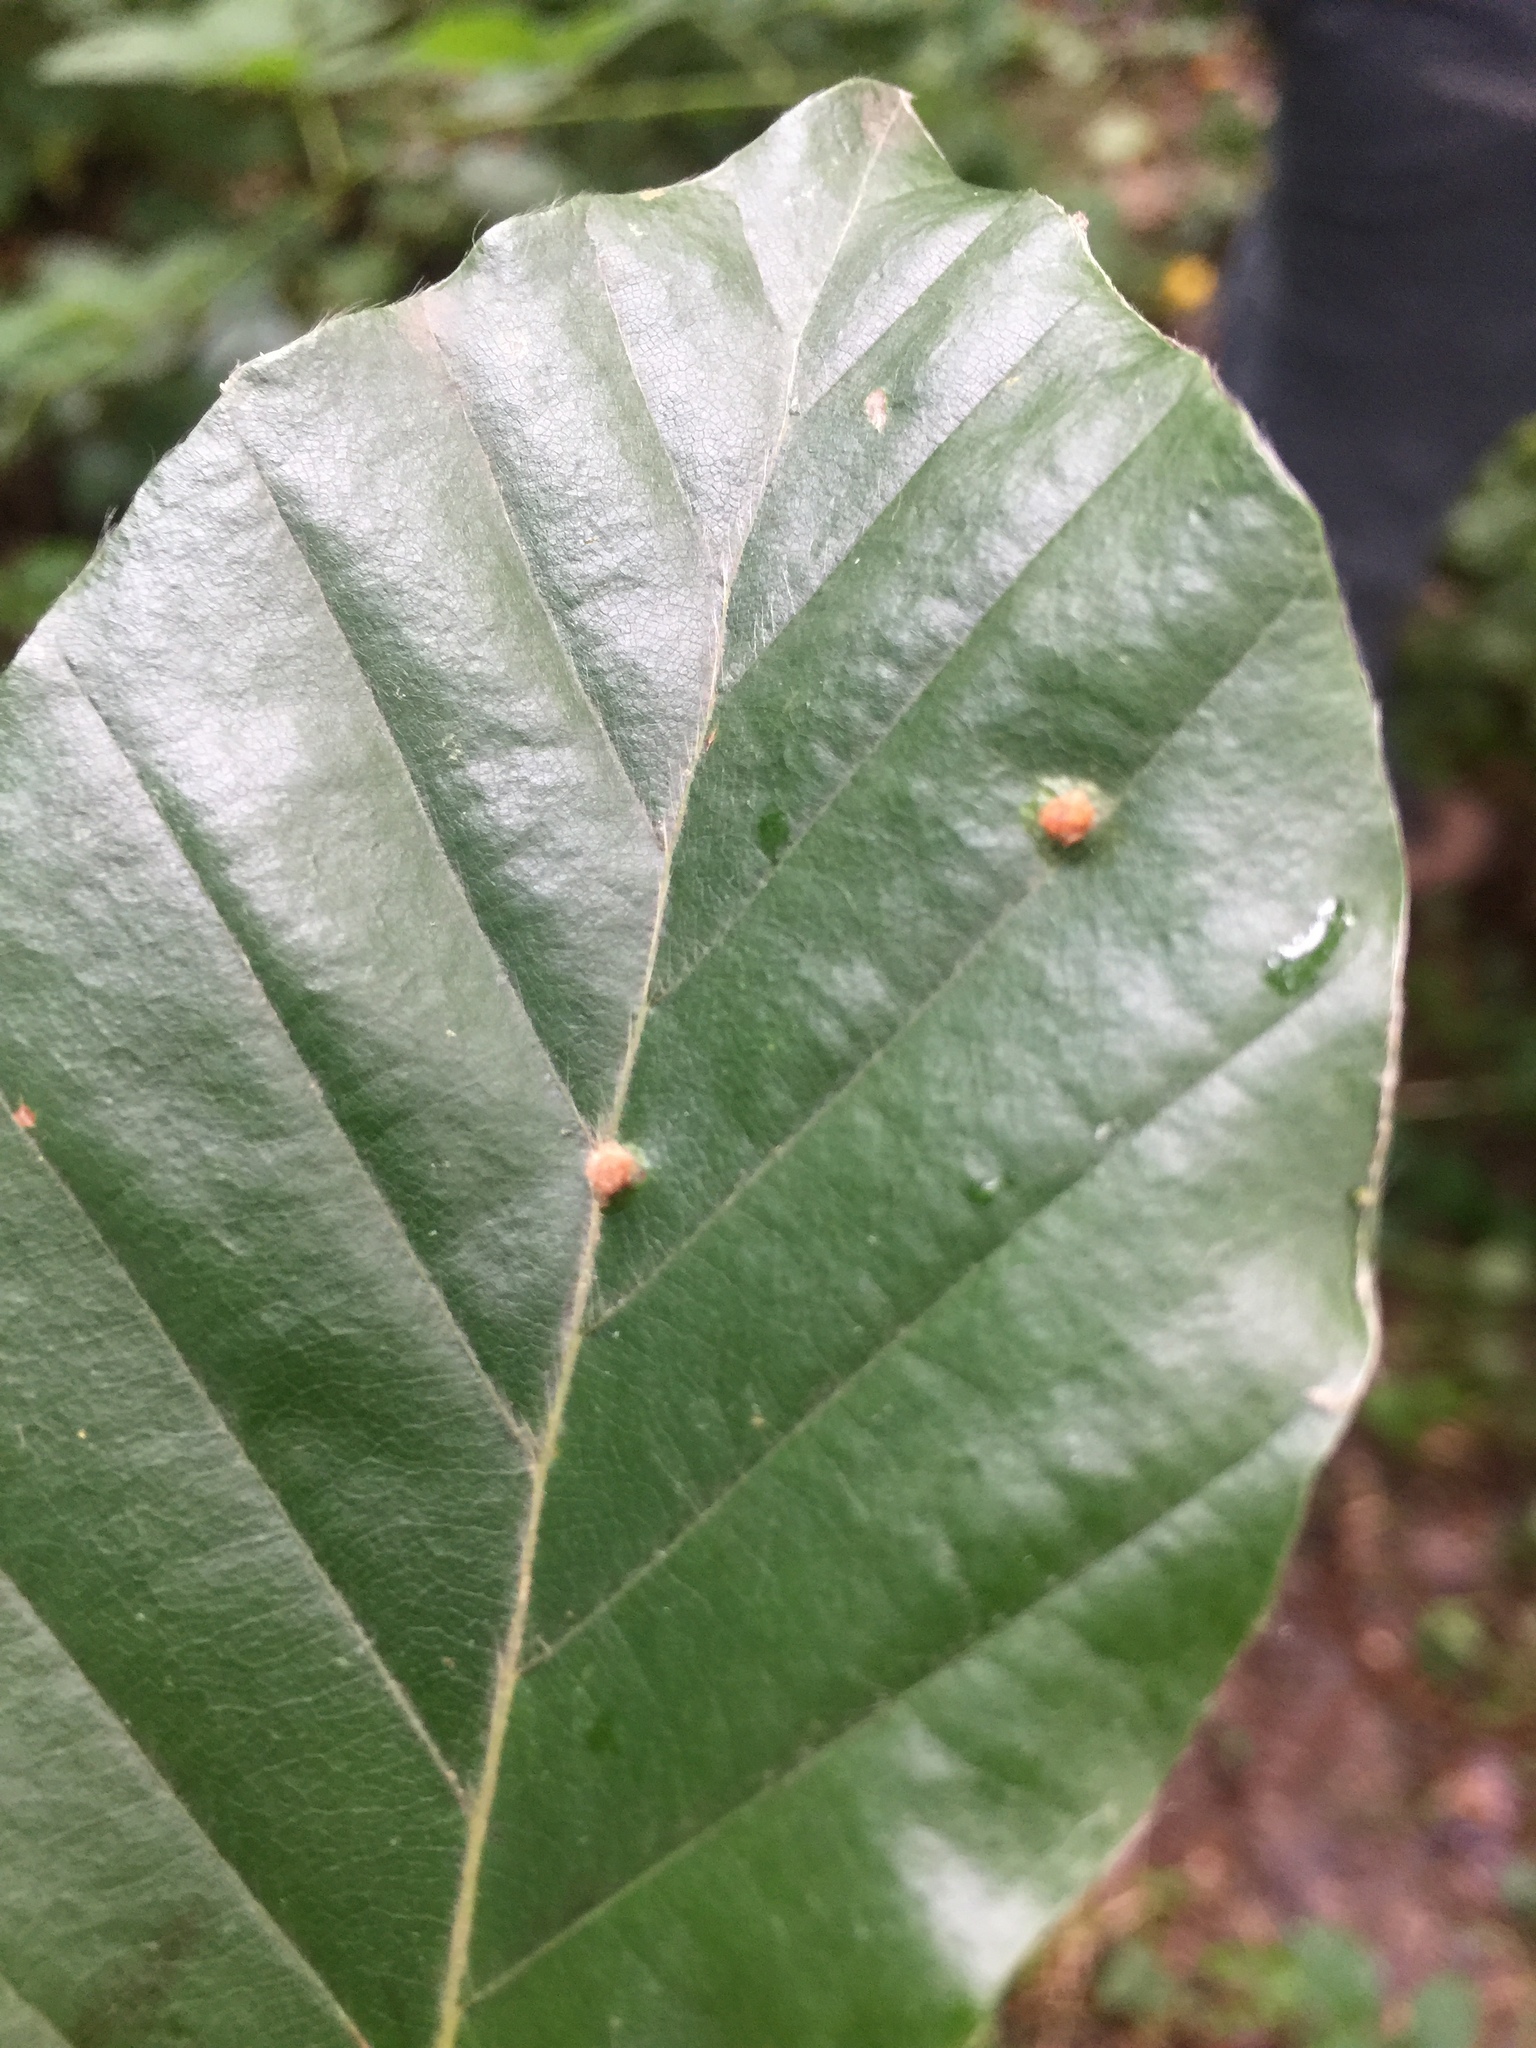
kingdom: Animalia
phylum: Arthropoda
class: Insecta
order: Diptera
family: Cecidomyiidae
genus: Hartigiola
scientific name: Hartigiola annulipes
